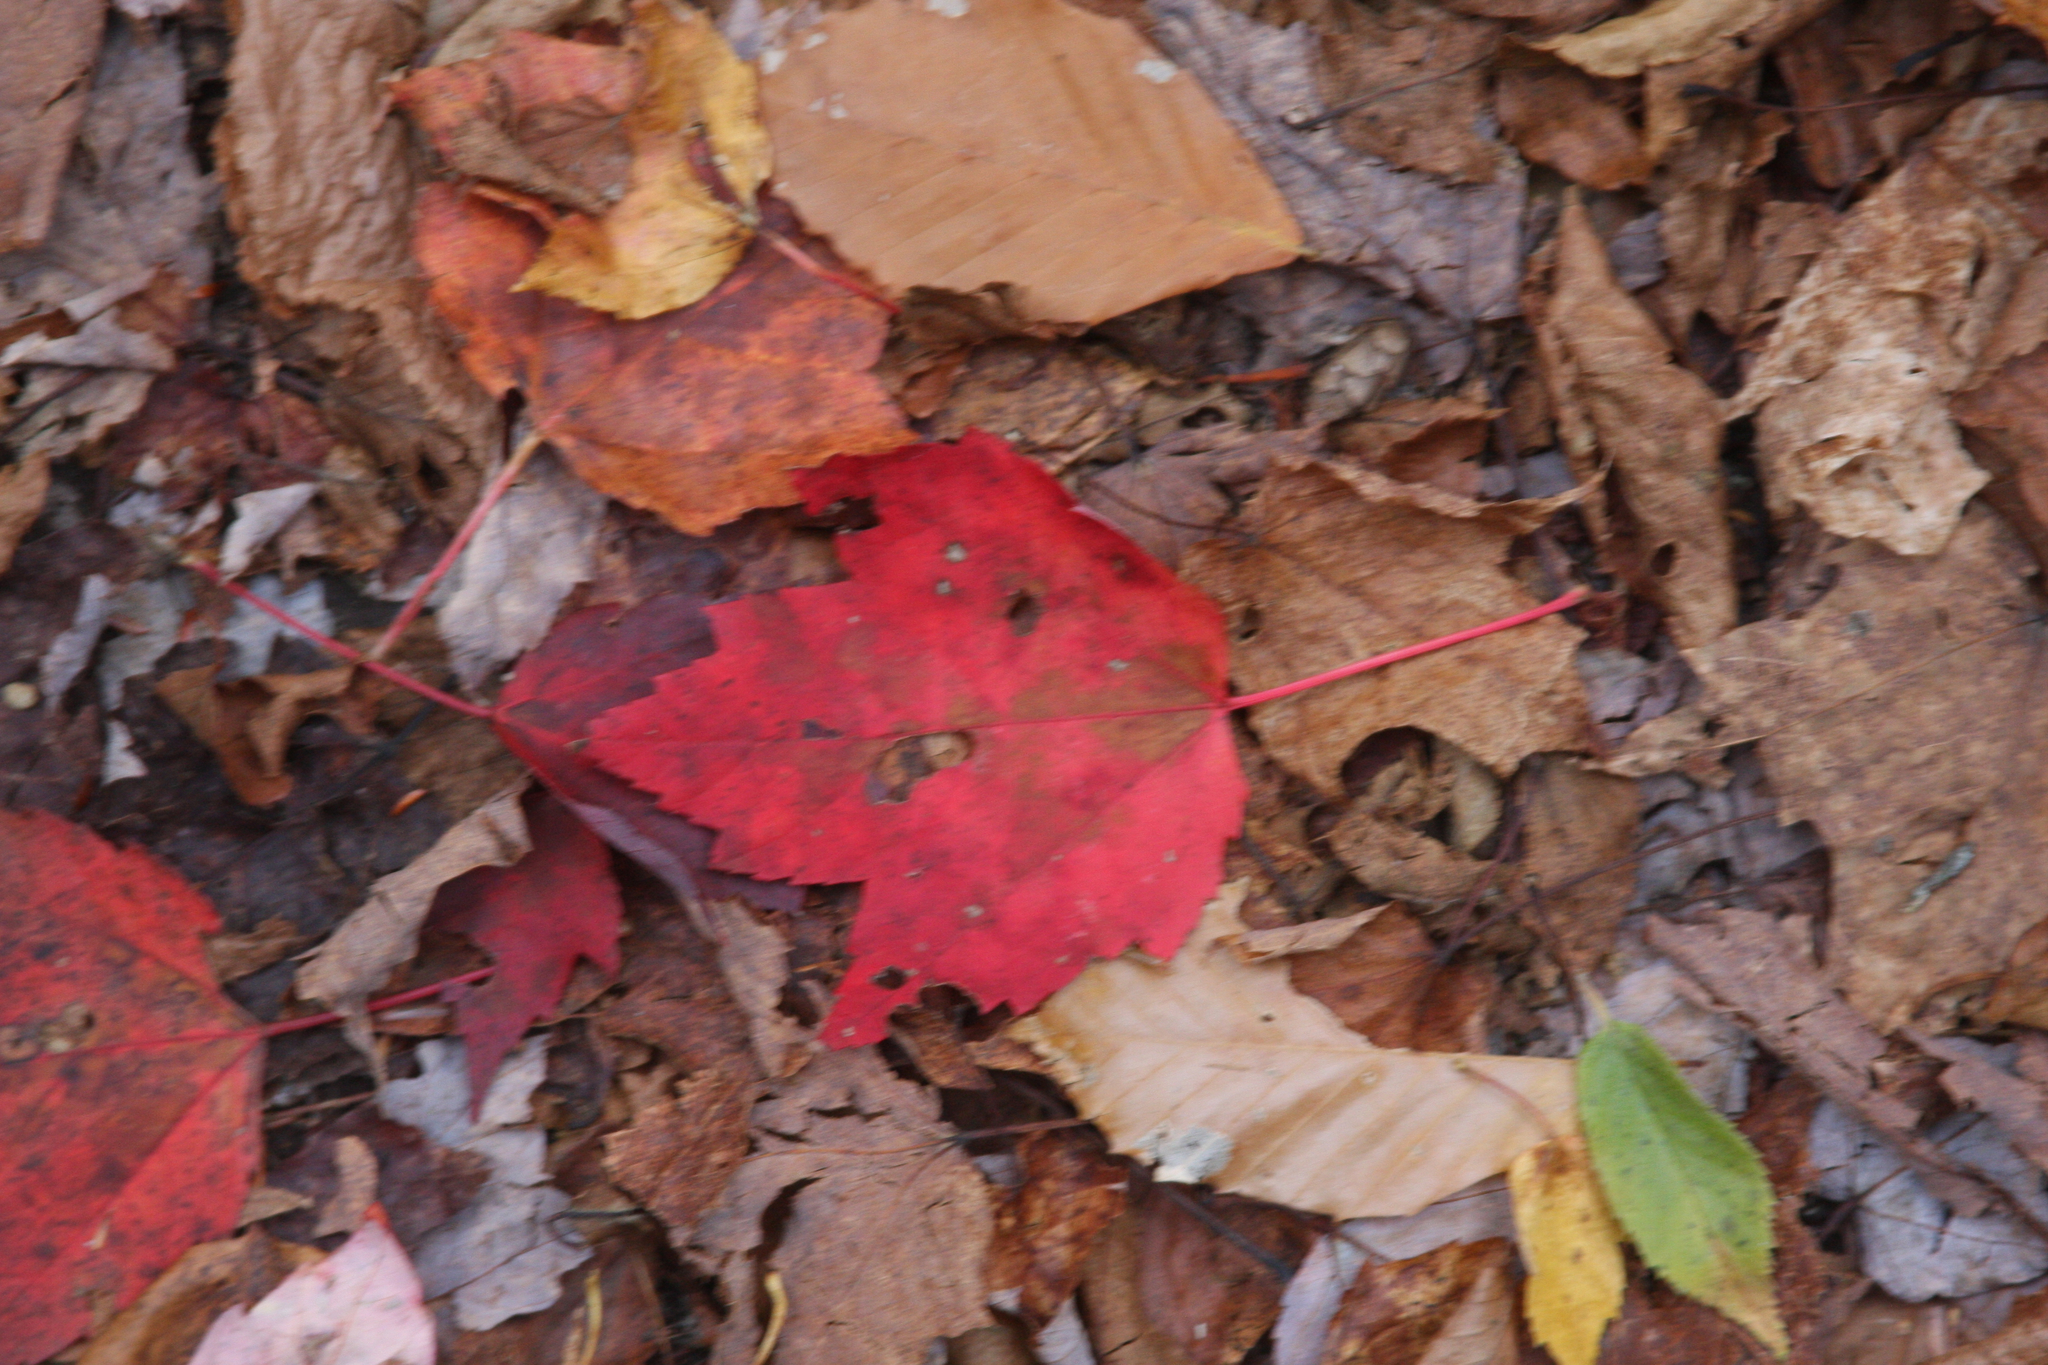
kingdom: Plantae
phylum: Tracheophyta
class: Magnoliopsida
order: Sapindales
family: Sapindaceae
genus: Acer
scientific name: Acer rubrum
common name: Red maple
